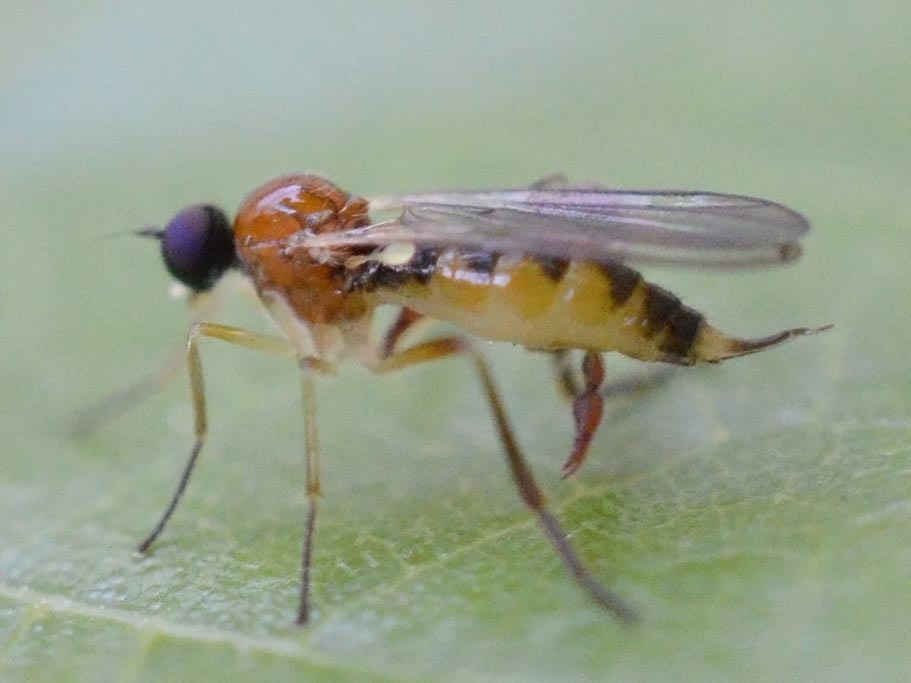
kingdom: Animalia
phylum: Arthropoda
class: Insecta
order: Diptera
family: Hybotidae
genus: Leptopeza
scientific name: Leptopeza flavipes
